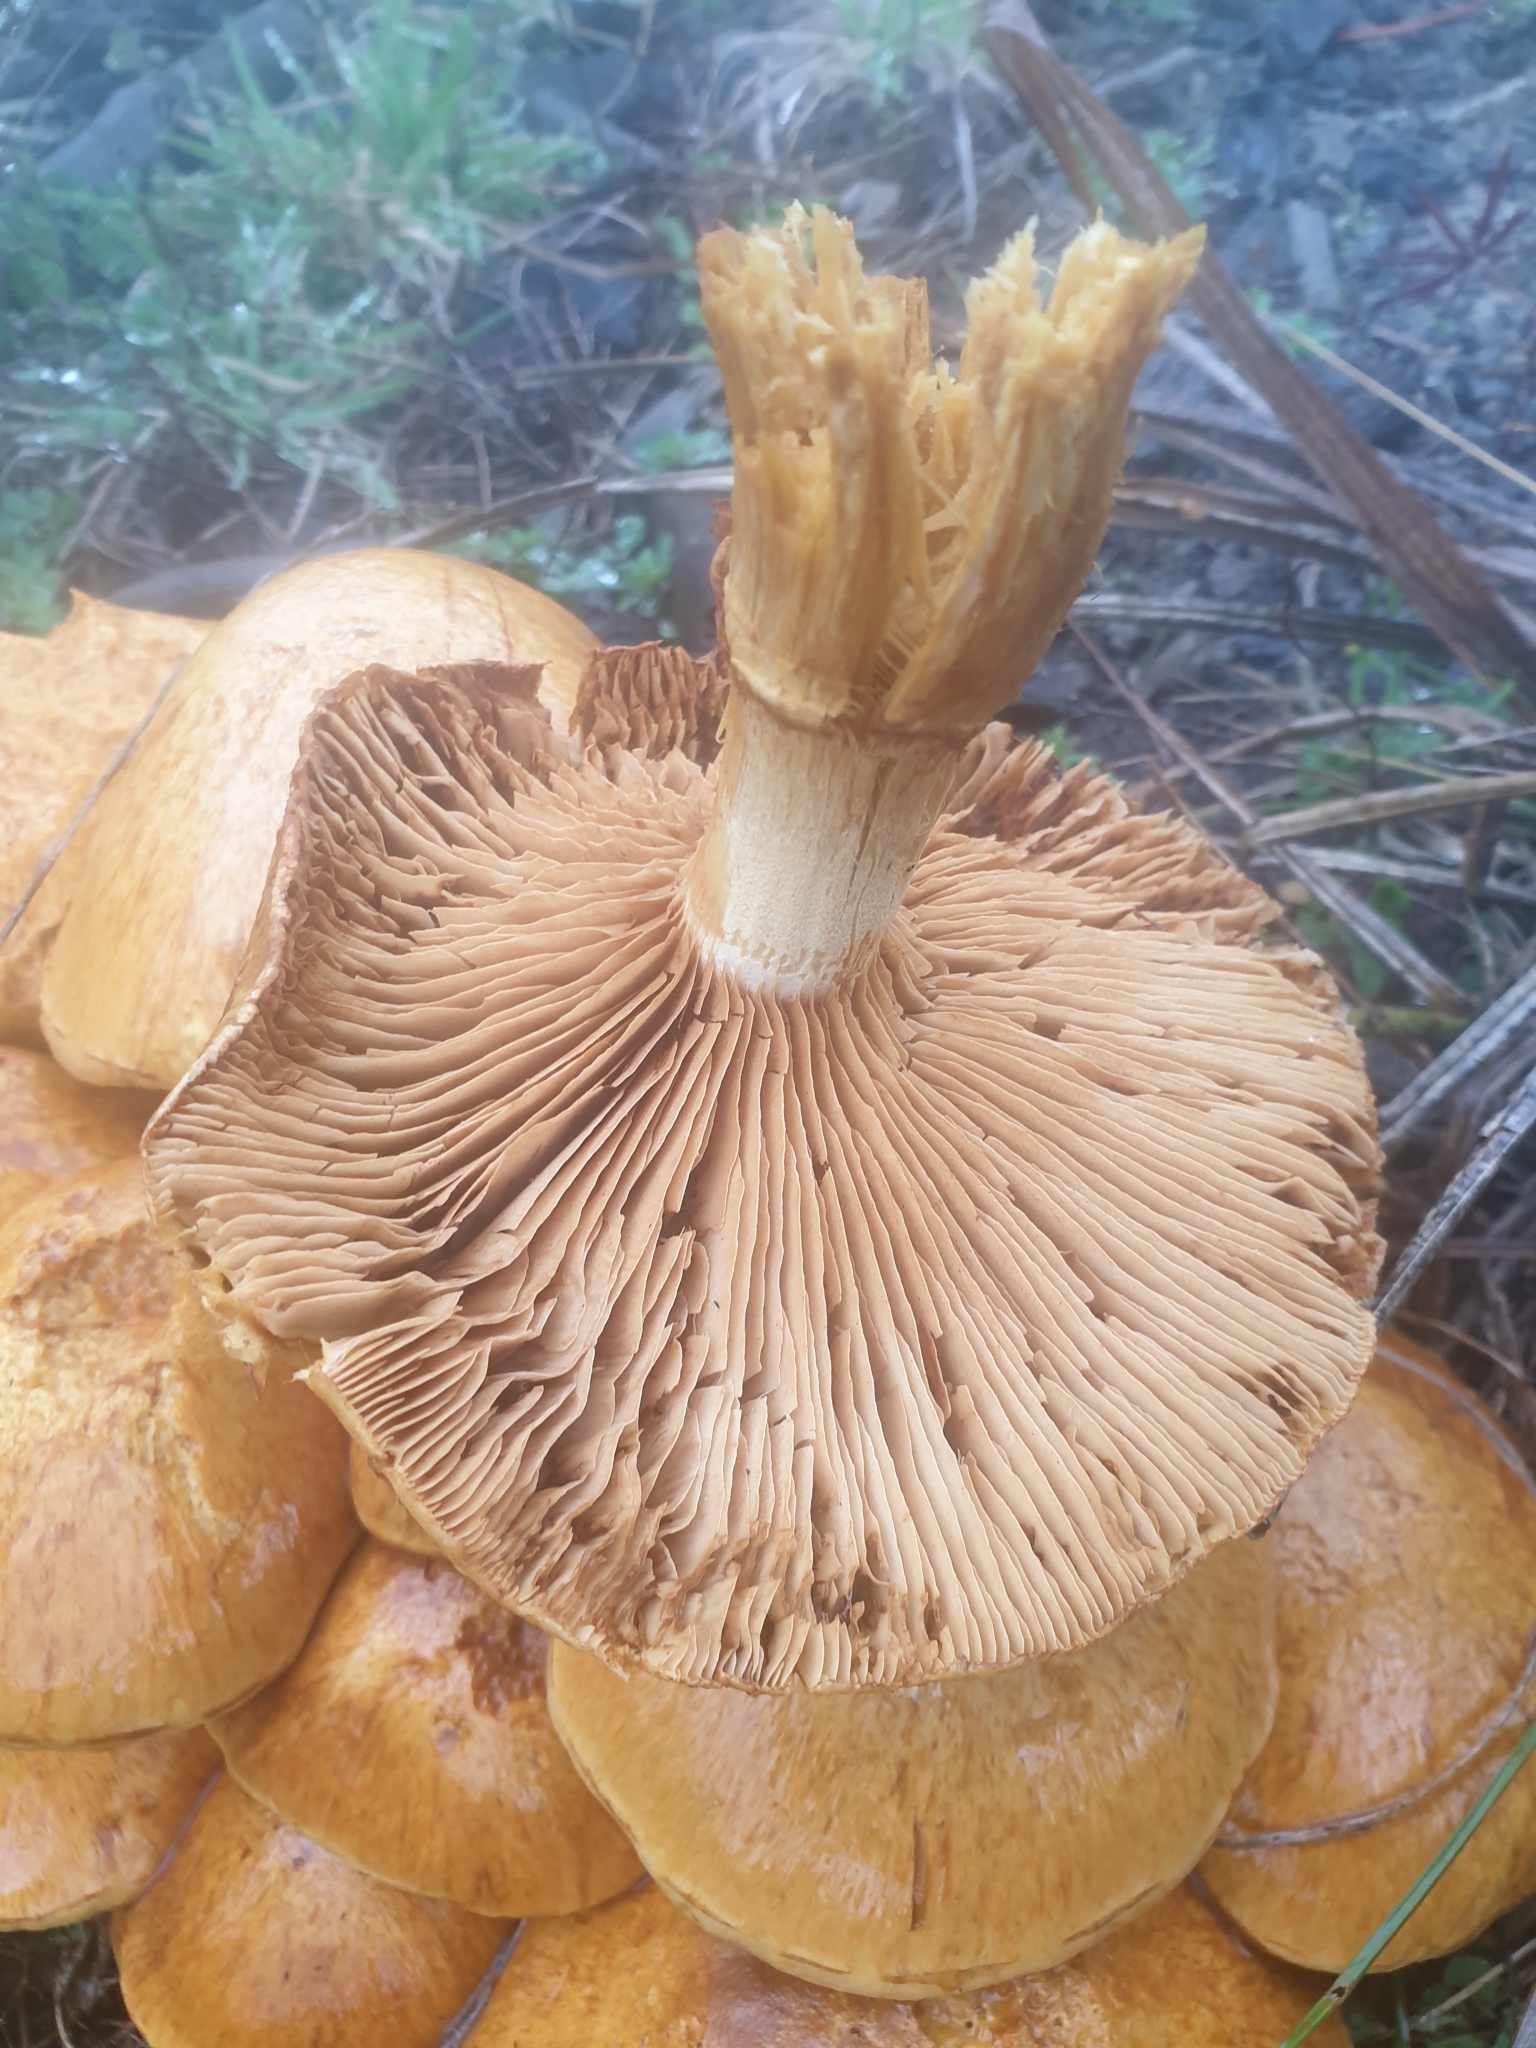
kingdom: Fungi
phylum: Basidiomycota
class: Agaricomycetes
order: Agaricales
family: Hymenogastraceae
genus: Gymnopilus
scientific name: Gymnopilus junonius
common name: Spectacular rustgill
